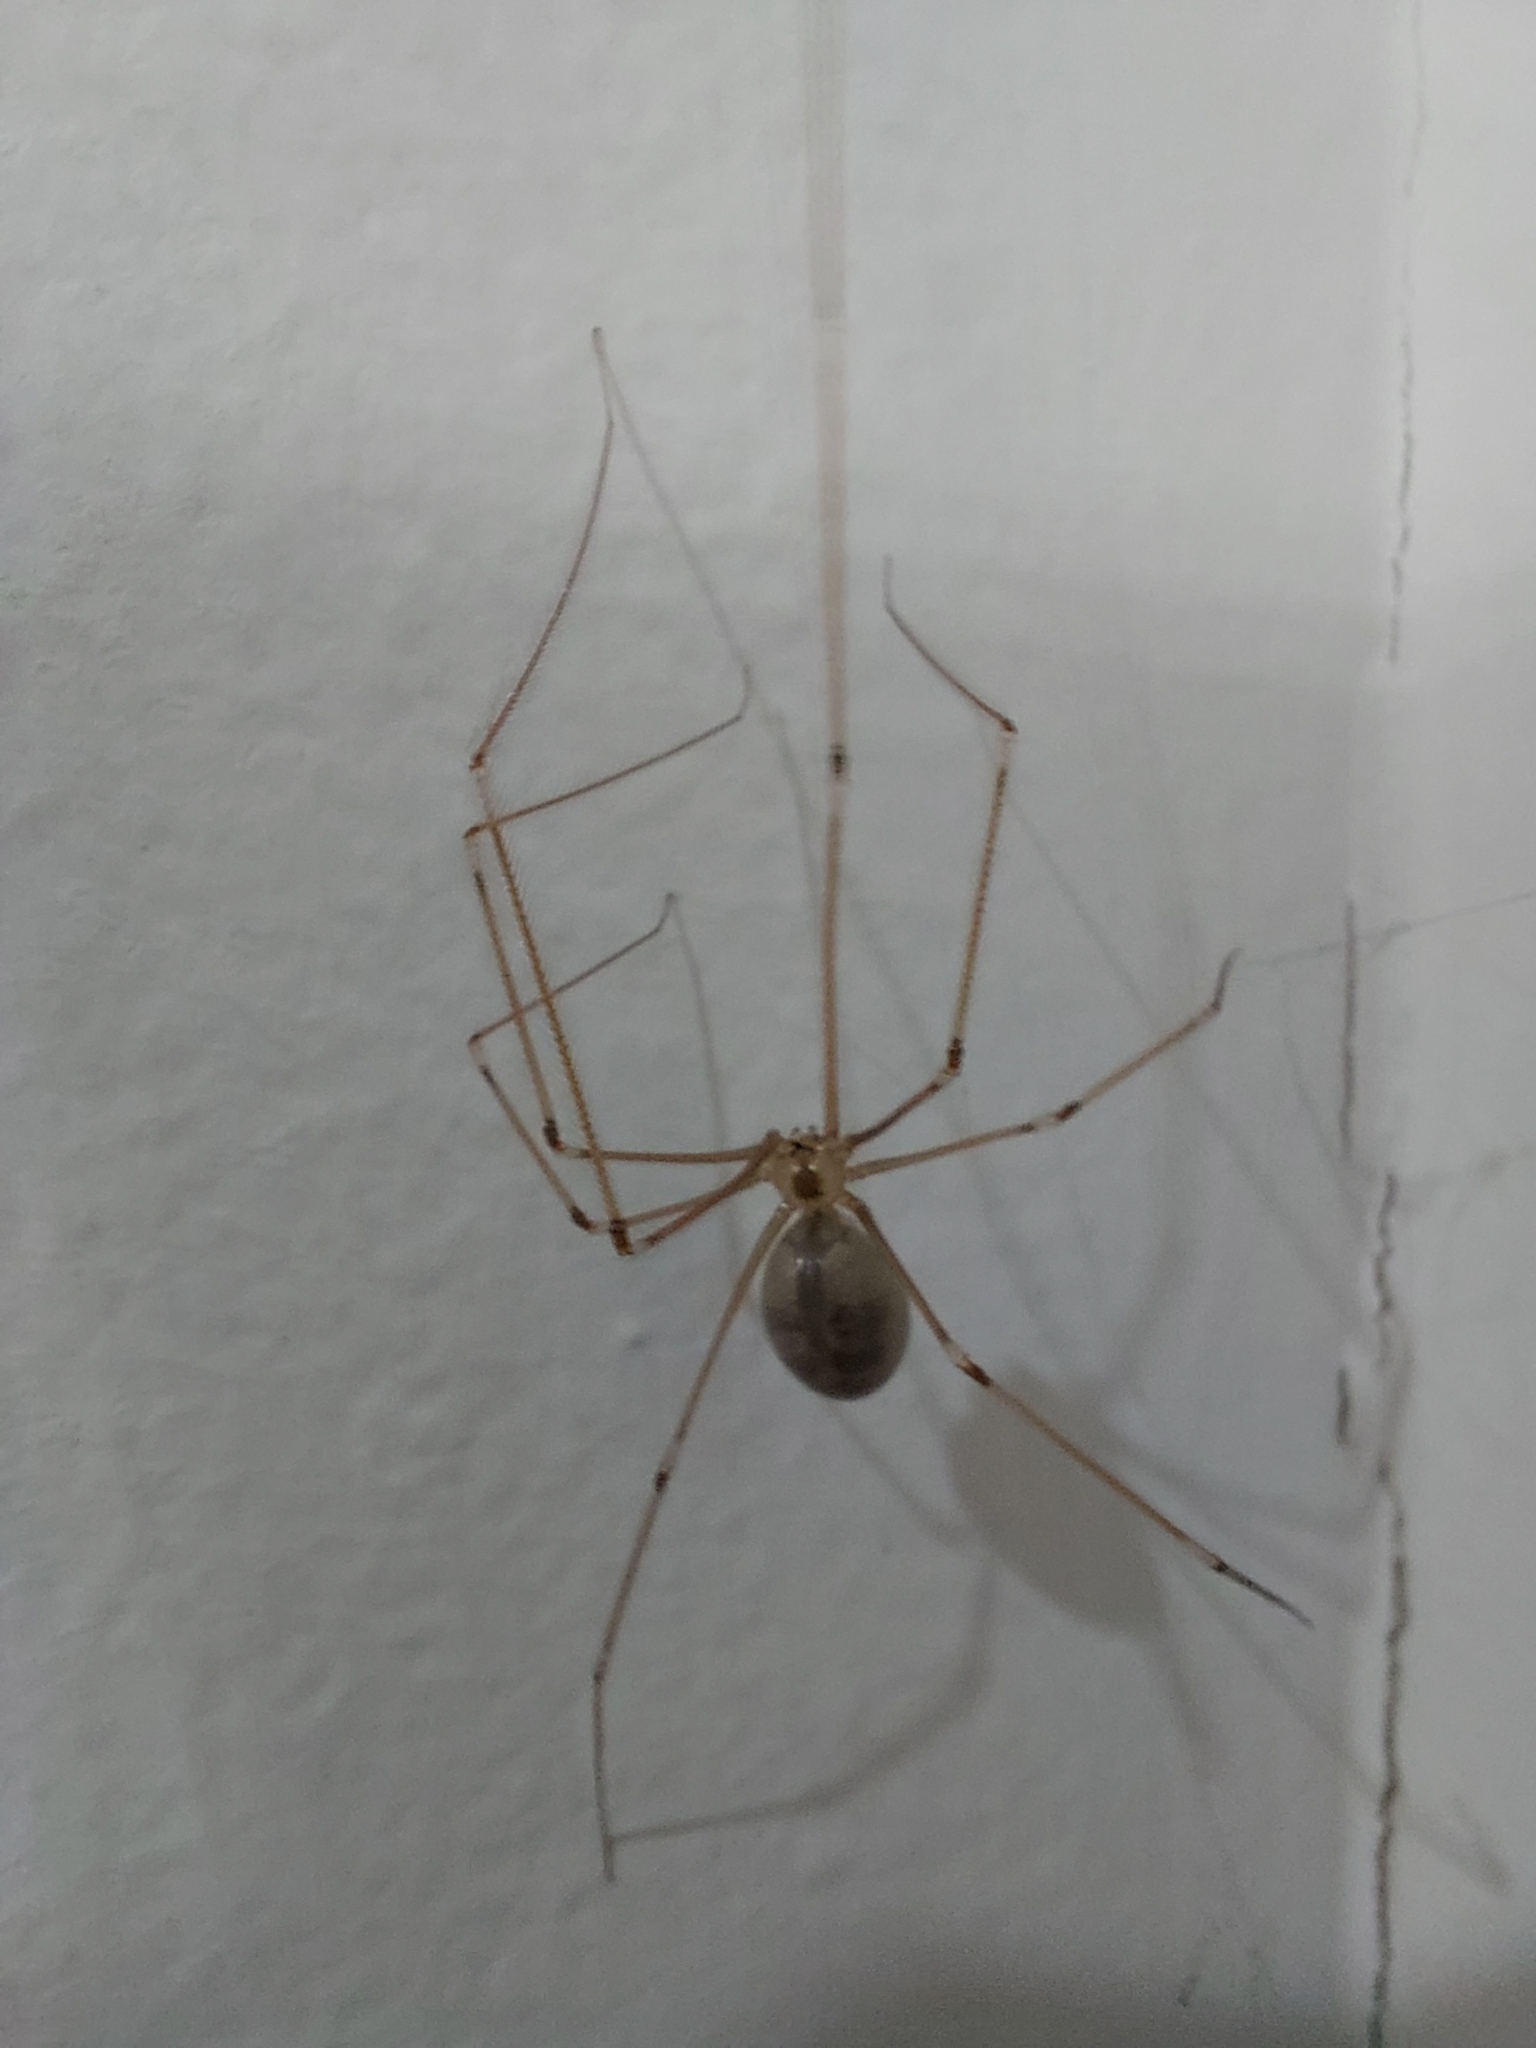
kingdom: Animalia
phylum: Arthropoda
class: Arachnida
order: Araneae
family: Pholcidae
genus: Pholcus
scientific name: Pholcus phalangioides
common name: Longbodied cellar spider
